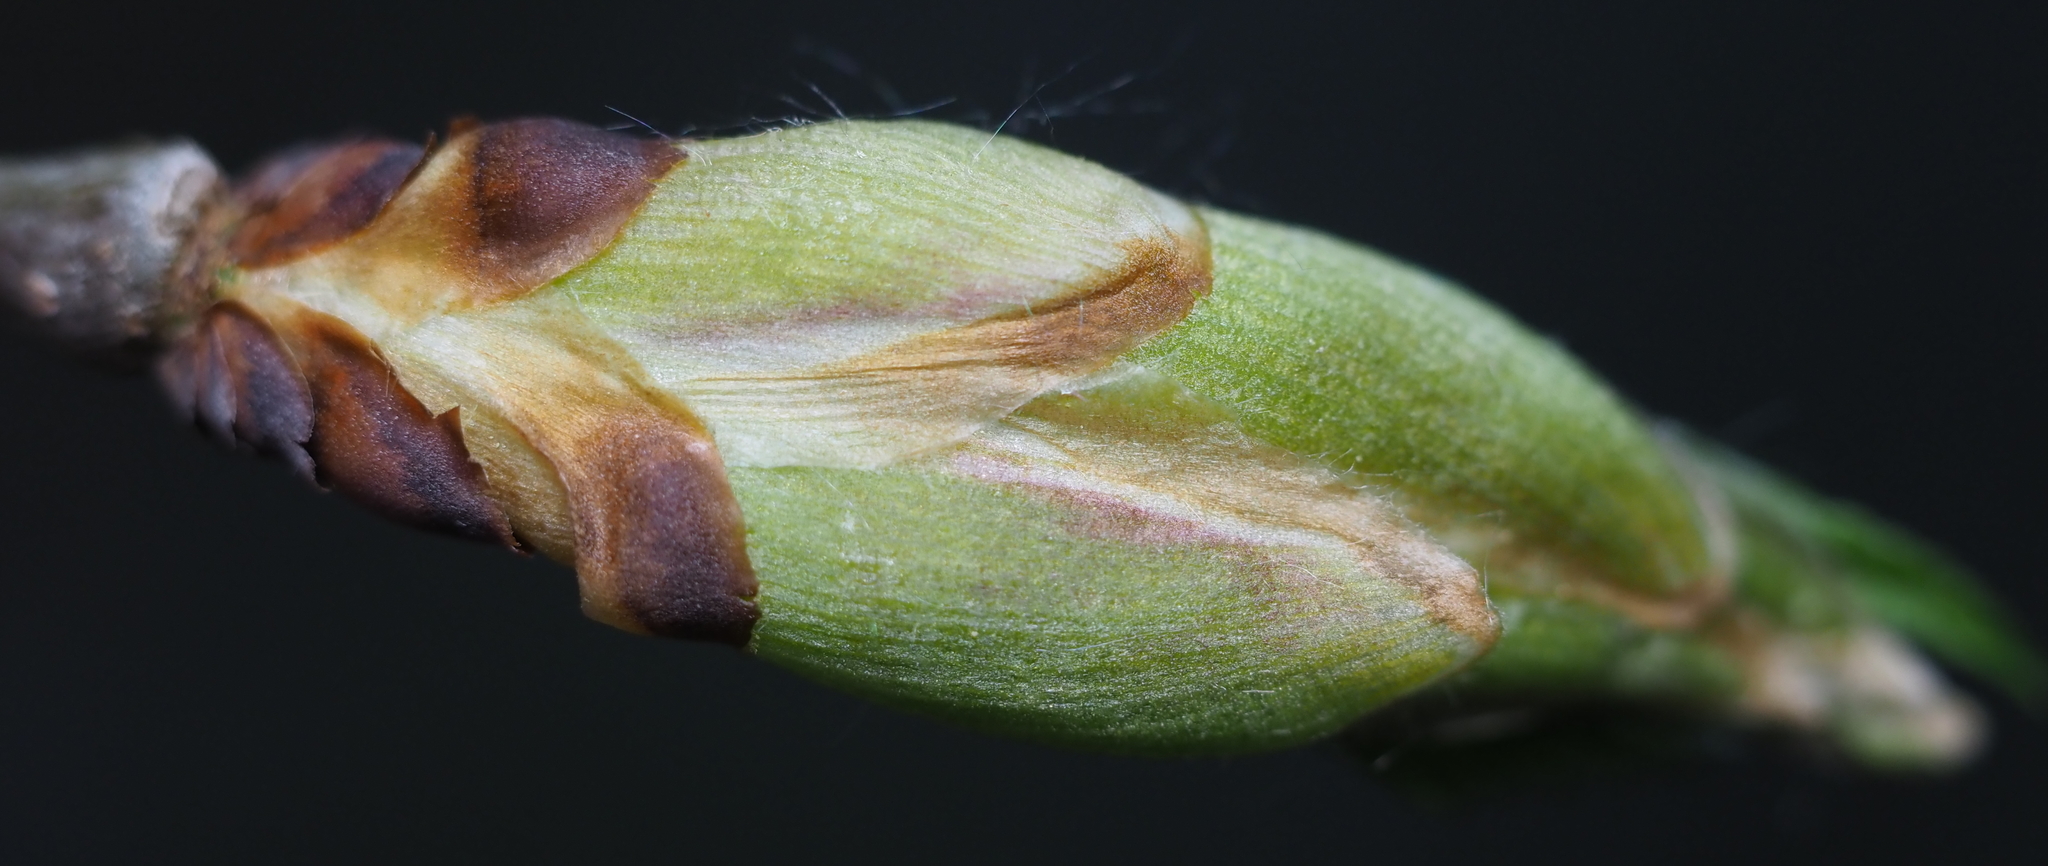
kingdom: Plantae
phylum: Tracheophyta
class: Magnoliopsida
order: Rosales
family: Ulmaceae
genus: Ulmus
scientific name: Ulmus americana
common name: American elm
